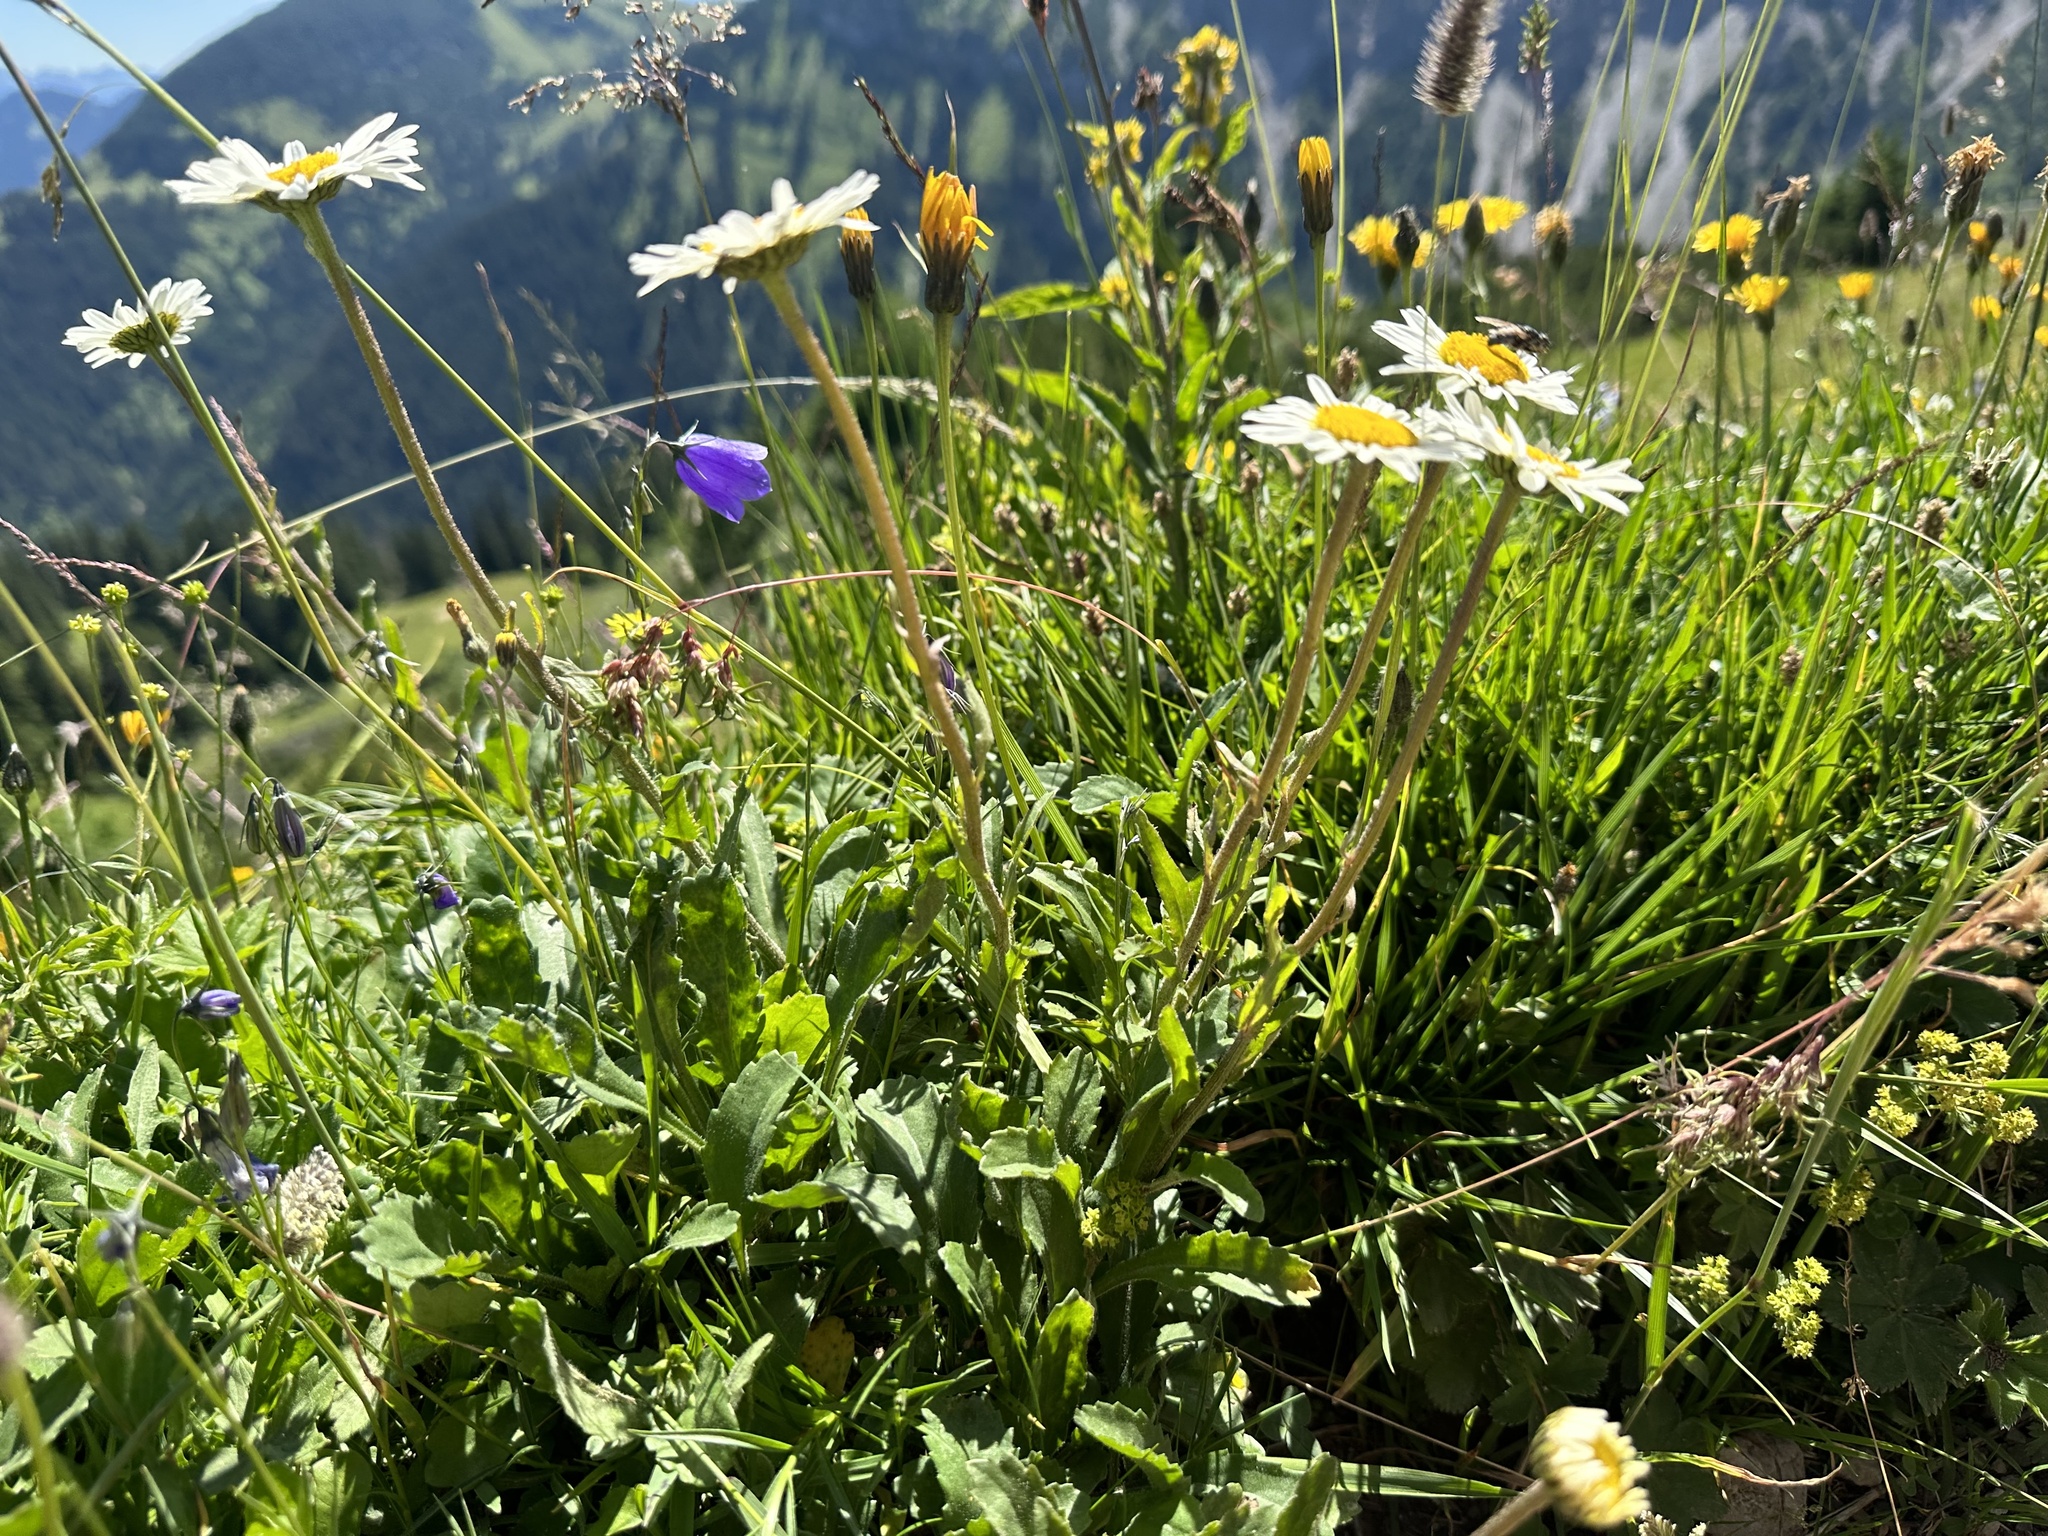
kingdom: Plantae
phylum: Tracheophyta
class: Magnoliopsida
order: Asterales
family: Asteraceae
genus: Leucanthemum
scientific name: Leucanthemum adustum
